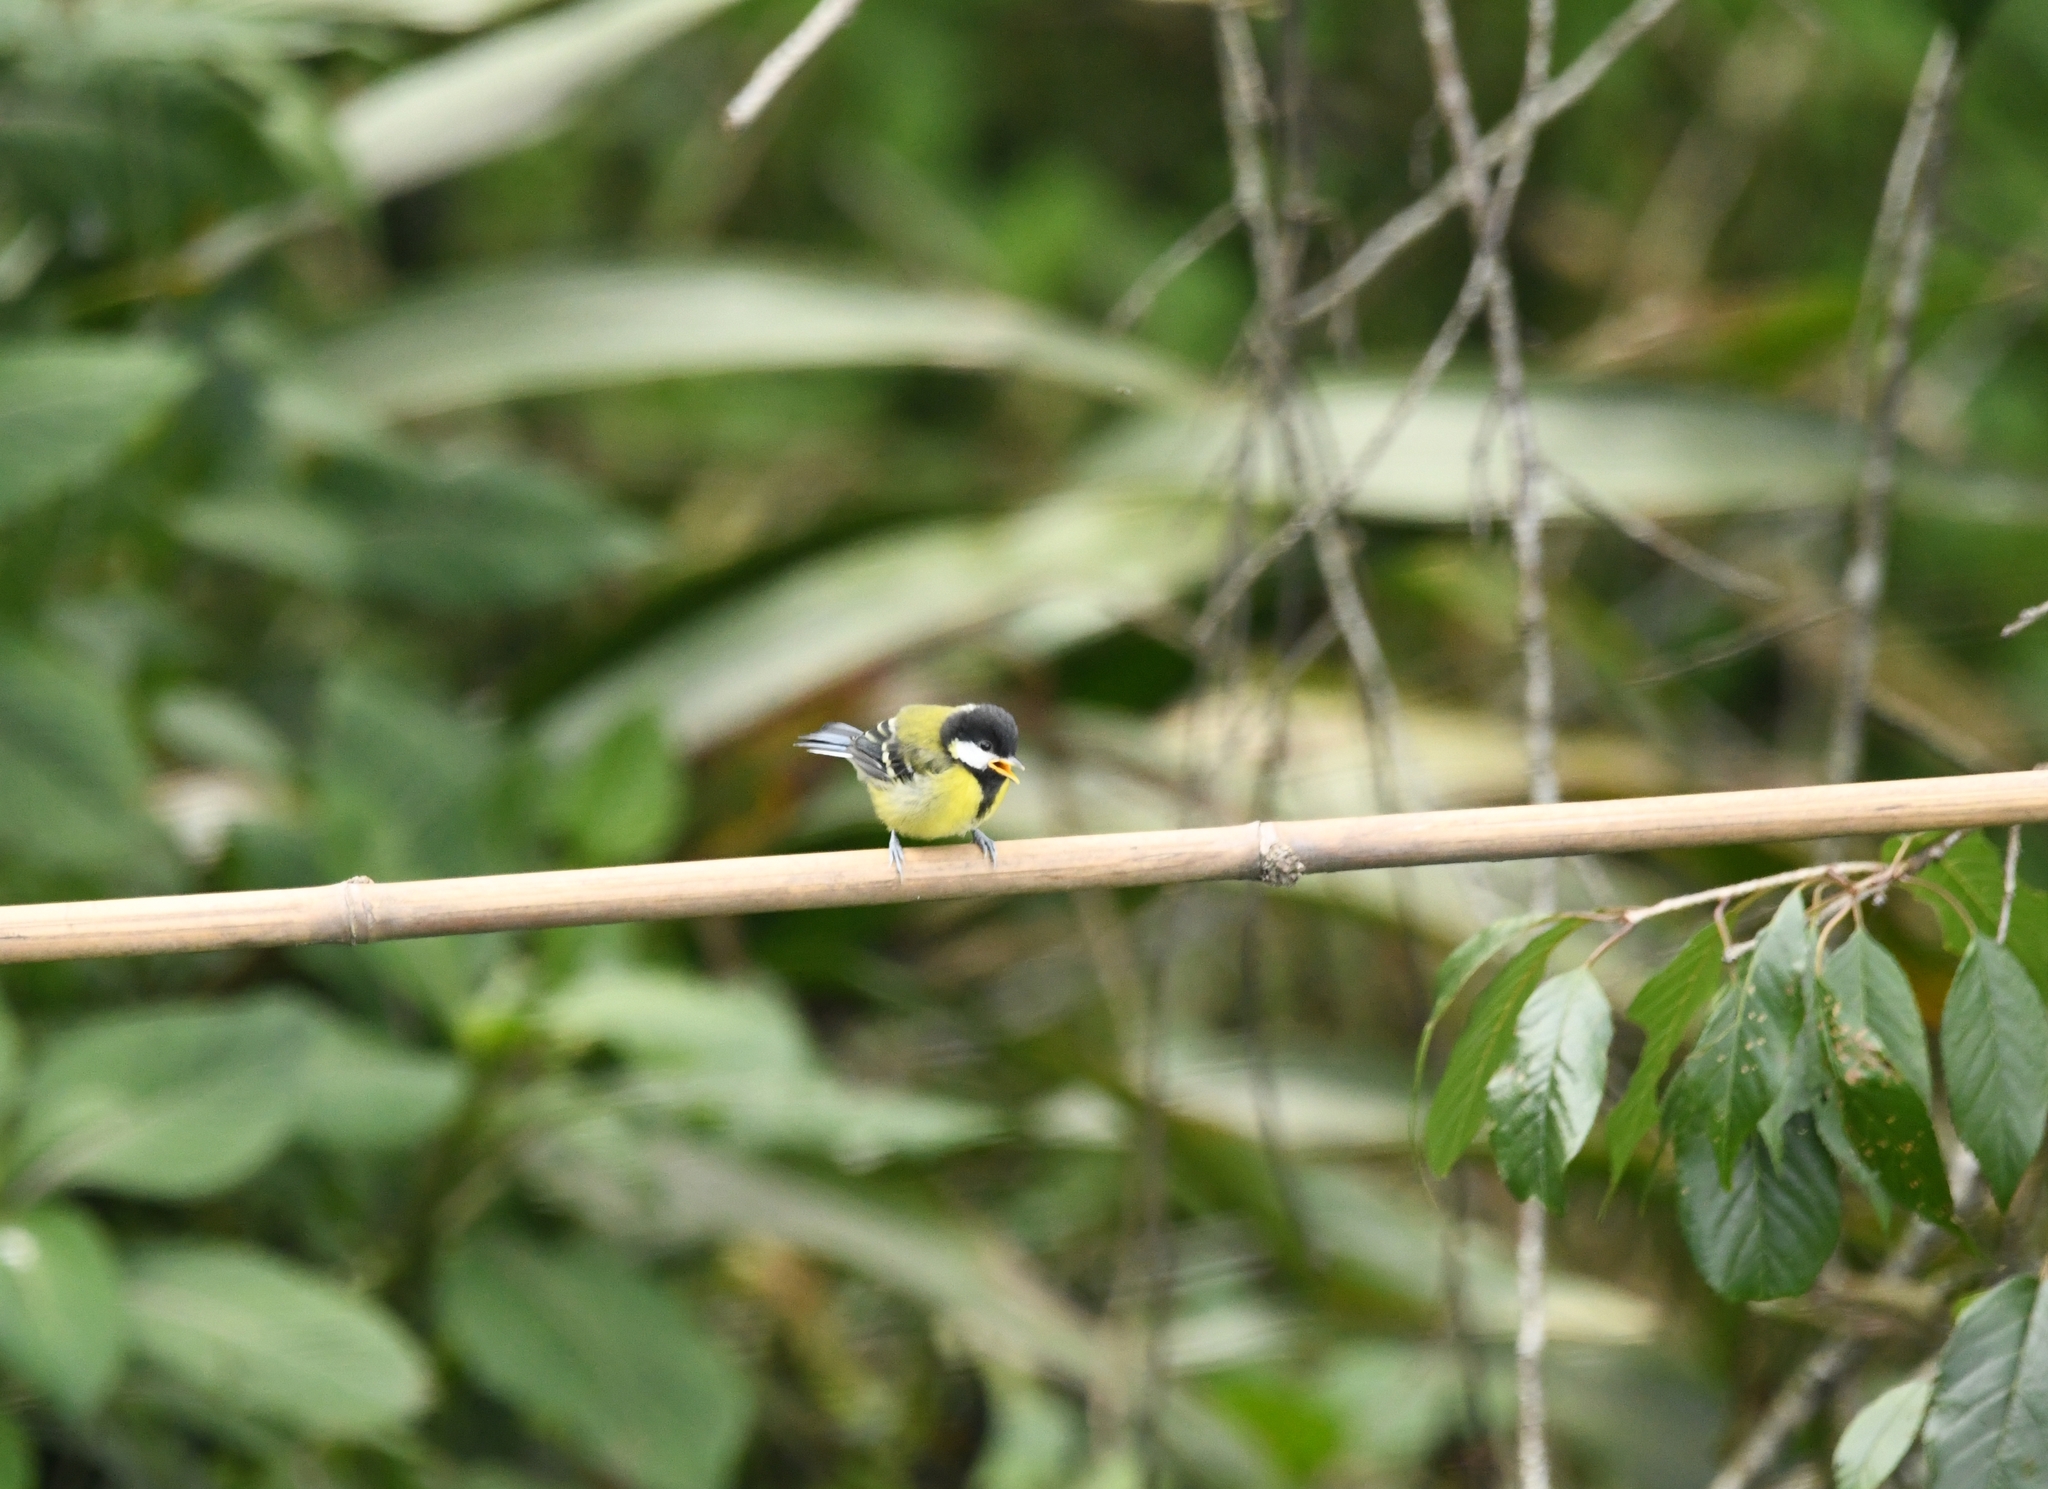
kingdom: Animalia
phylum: Chordata
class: Aves
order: Passeriformes
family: Paridae
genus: Parus
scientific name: Parus monticolus
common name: Green-backed tit
